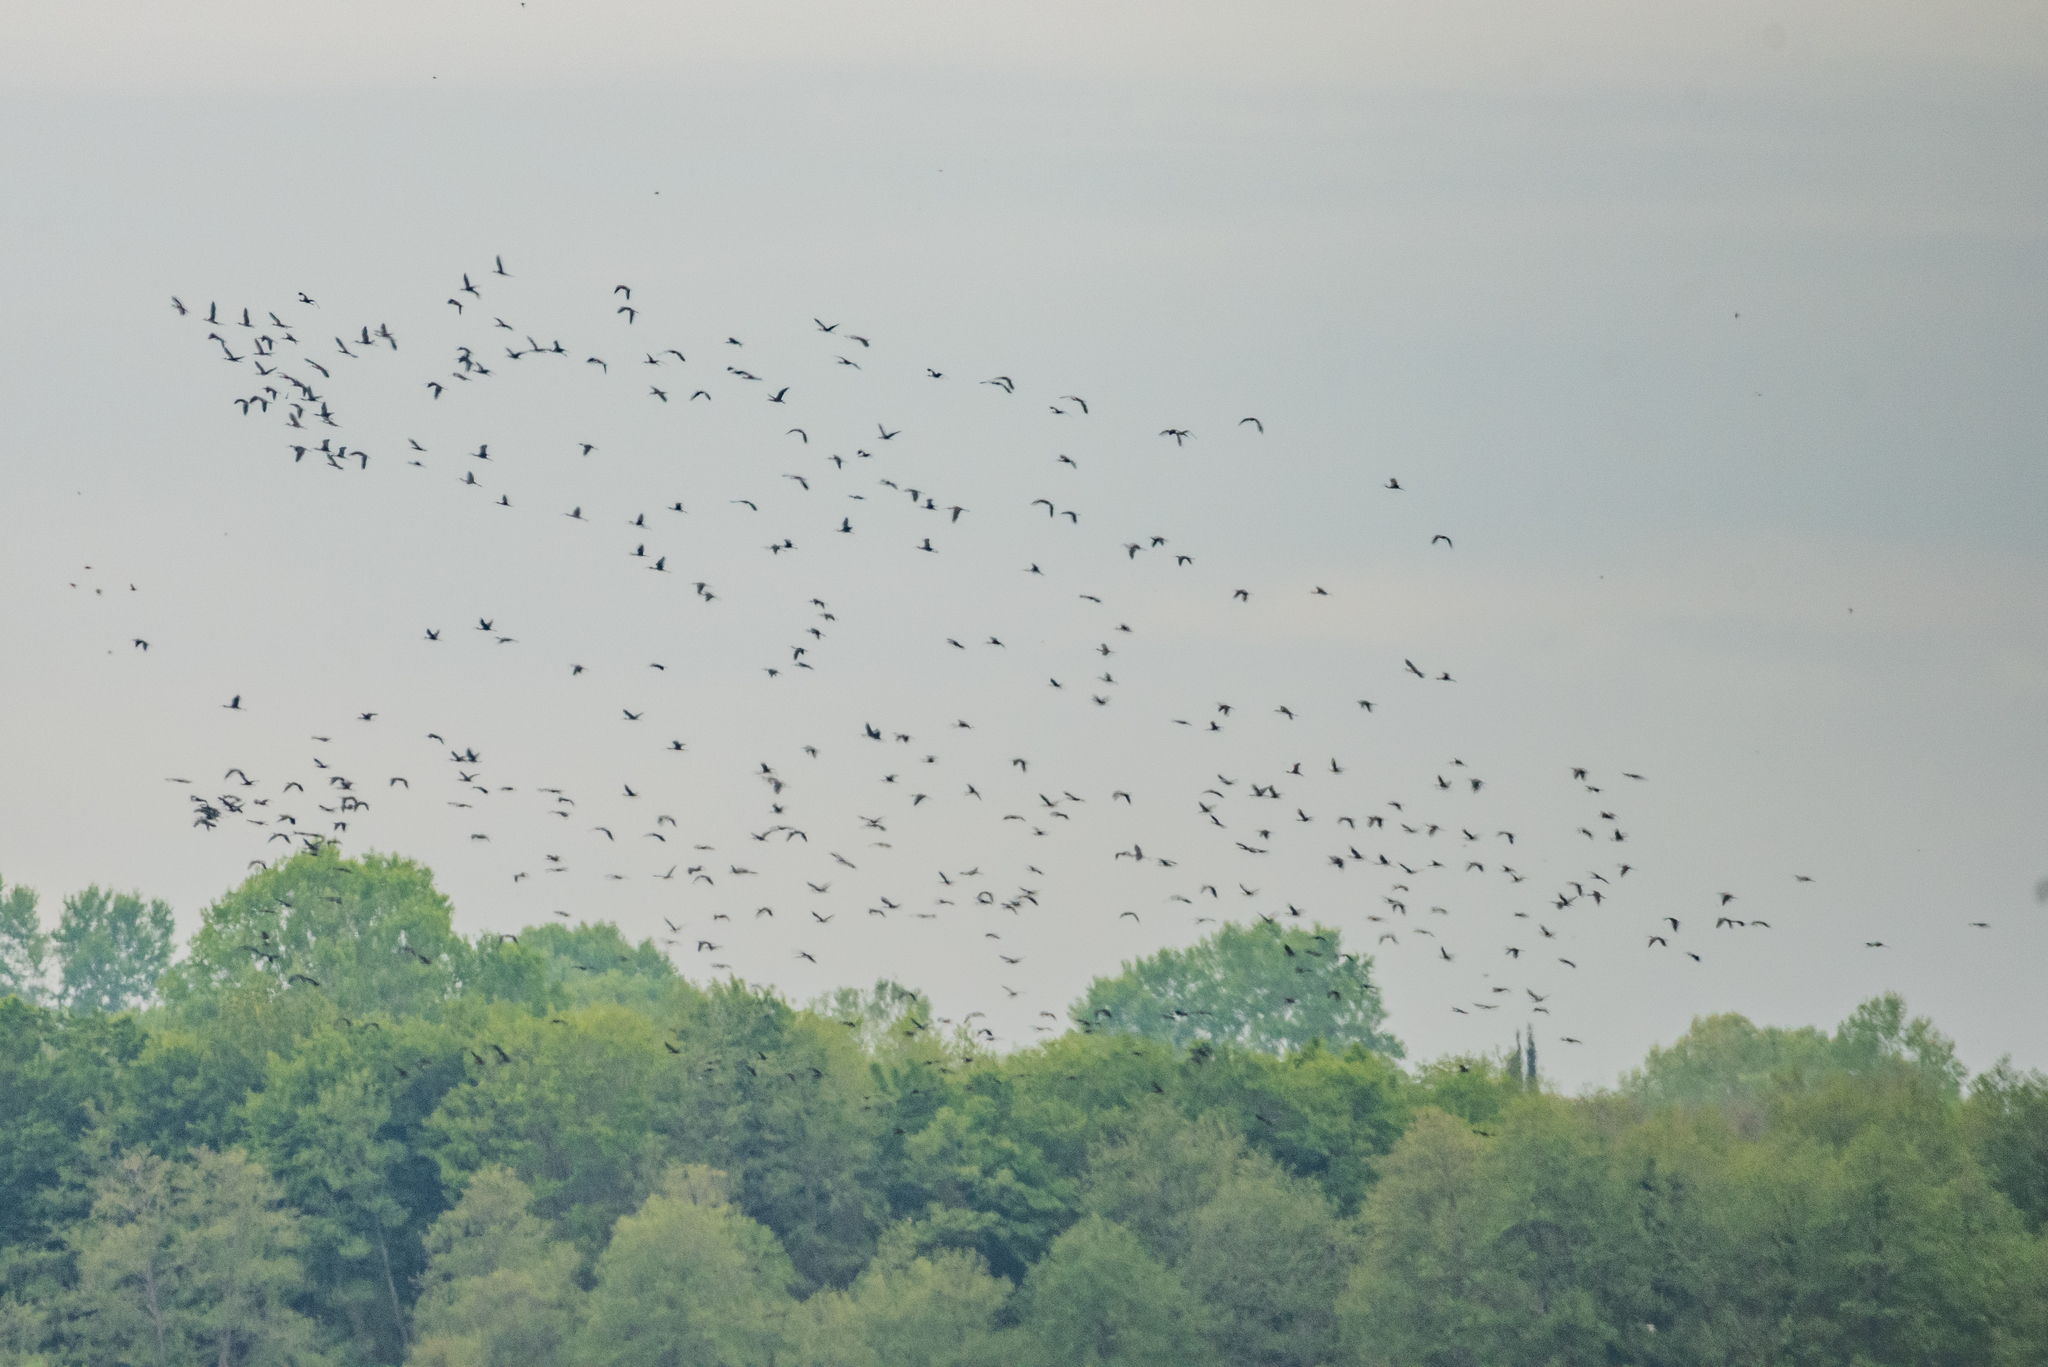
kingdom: Animalia
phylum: Chordata
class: Aves
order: Pelecaniformes
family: Threskiornithidae
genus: Plegadis
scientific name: Plegadis falcinellus
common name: Glossy ibis
